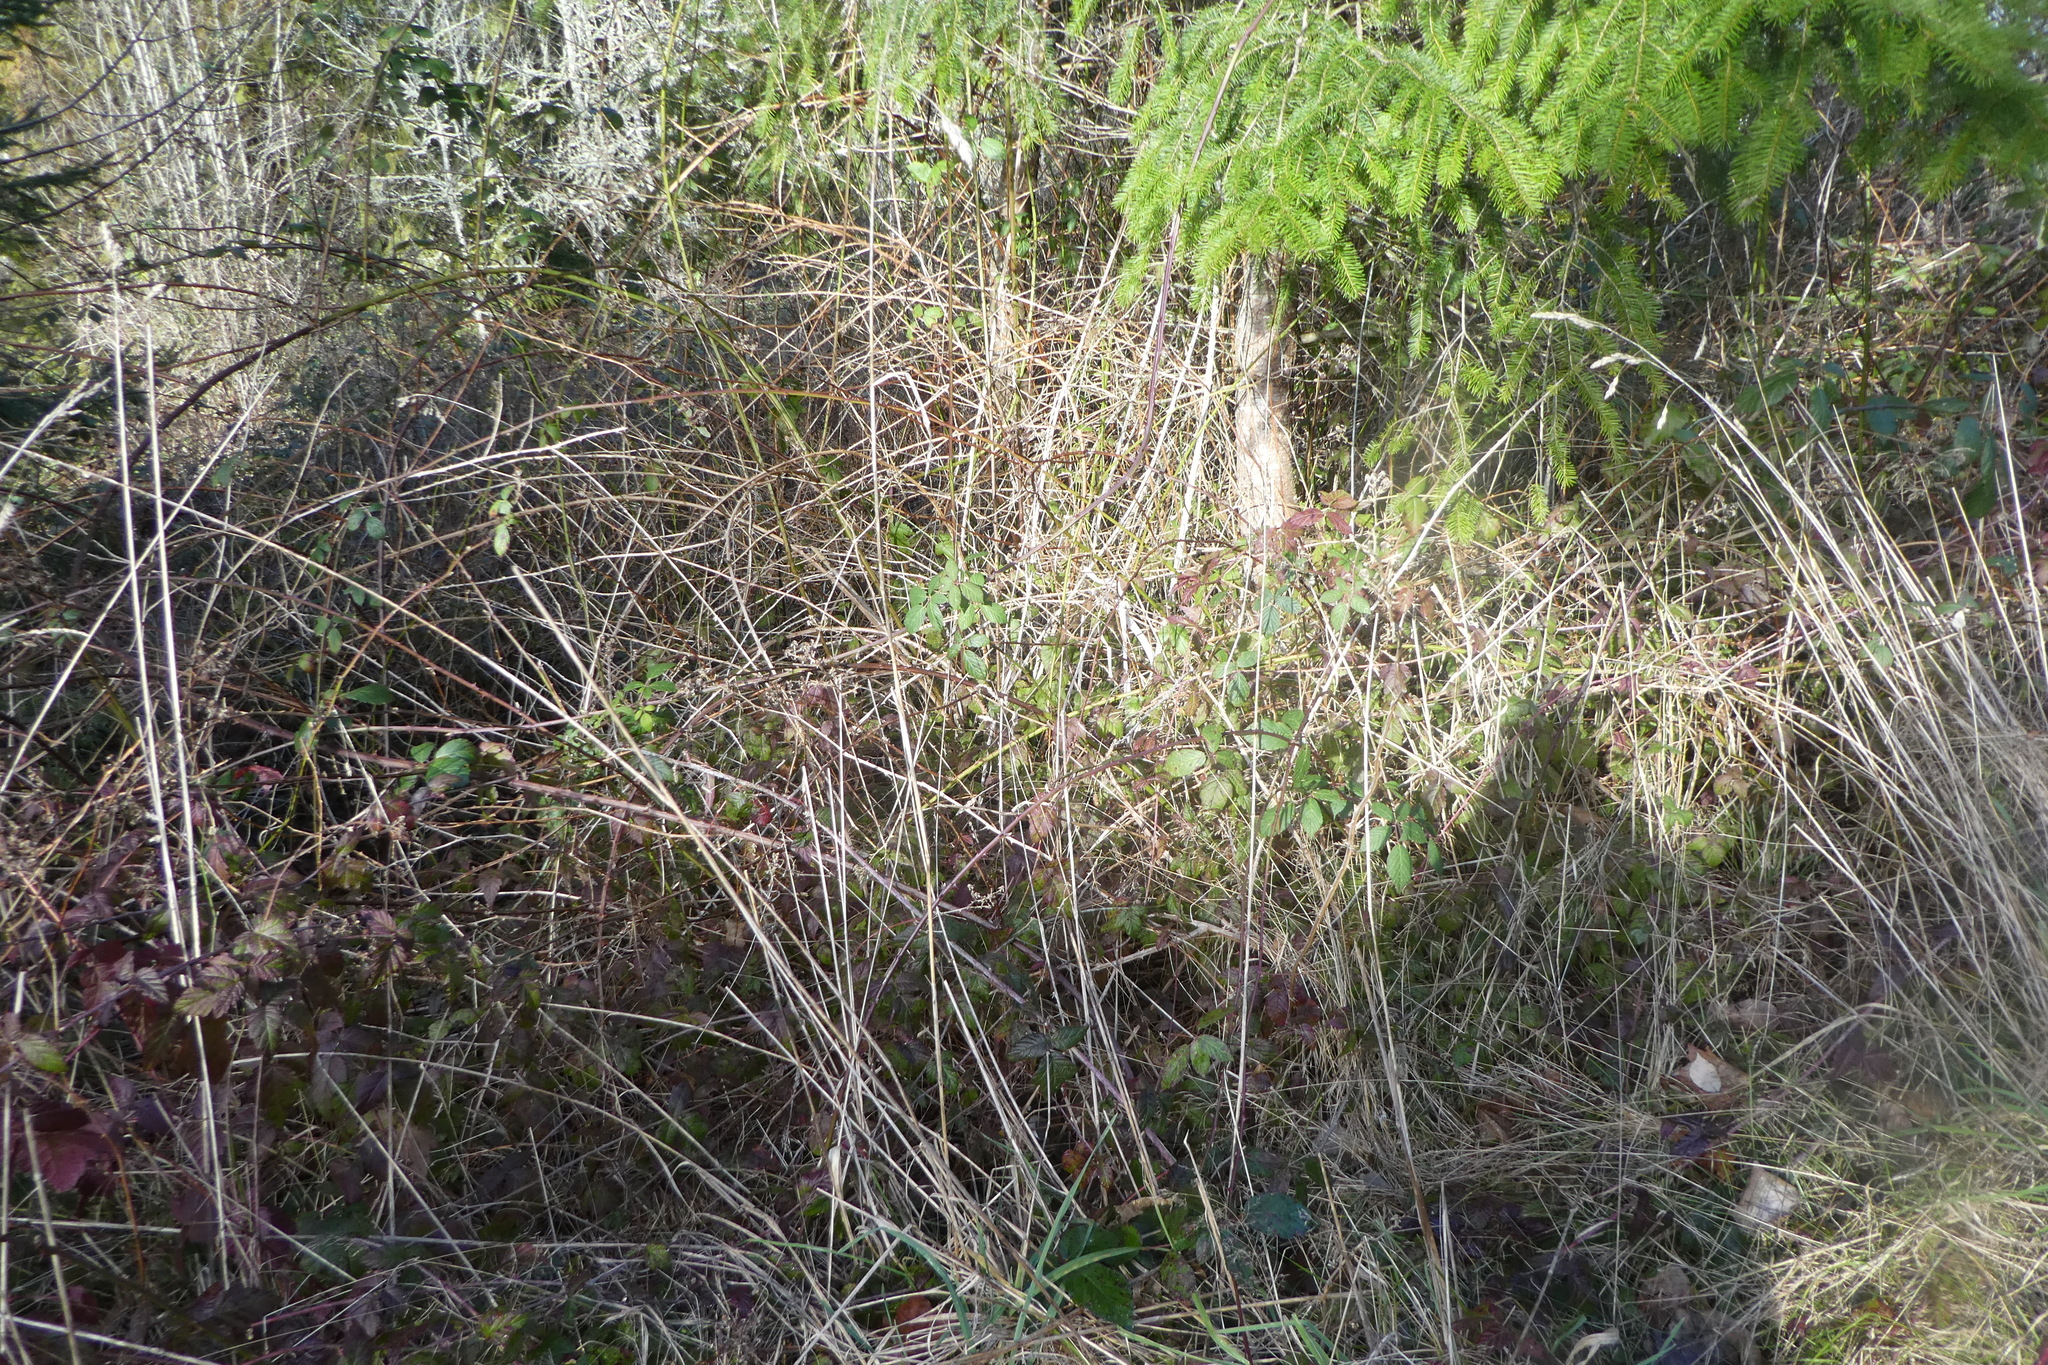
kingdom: Plantae
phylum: Tracheophyta
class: Liliopsida
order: Poales
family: Poaceae
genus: Dactylis
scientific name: Dactylis glomerata
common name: Orchardgrass
